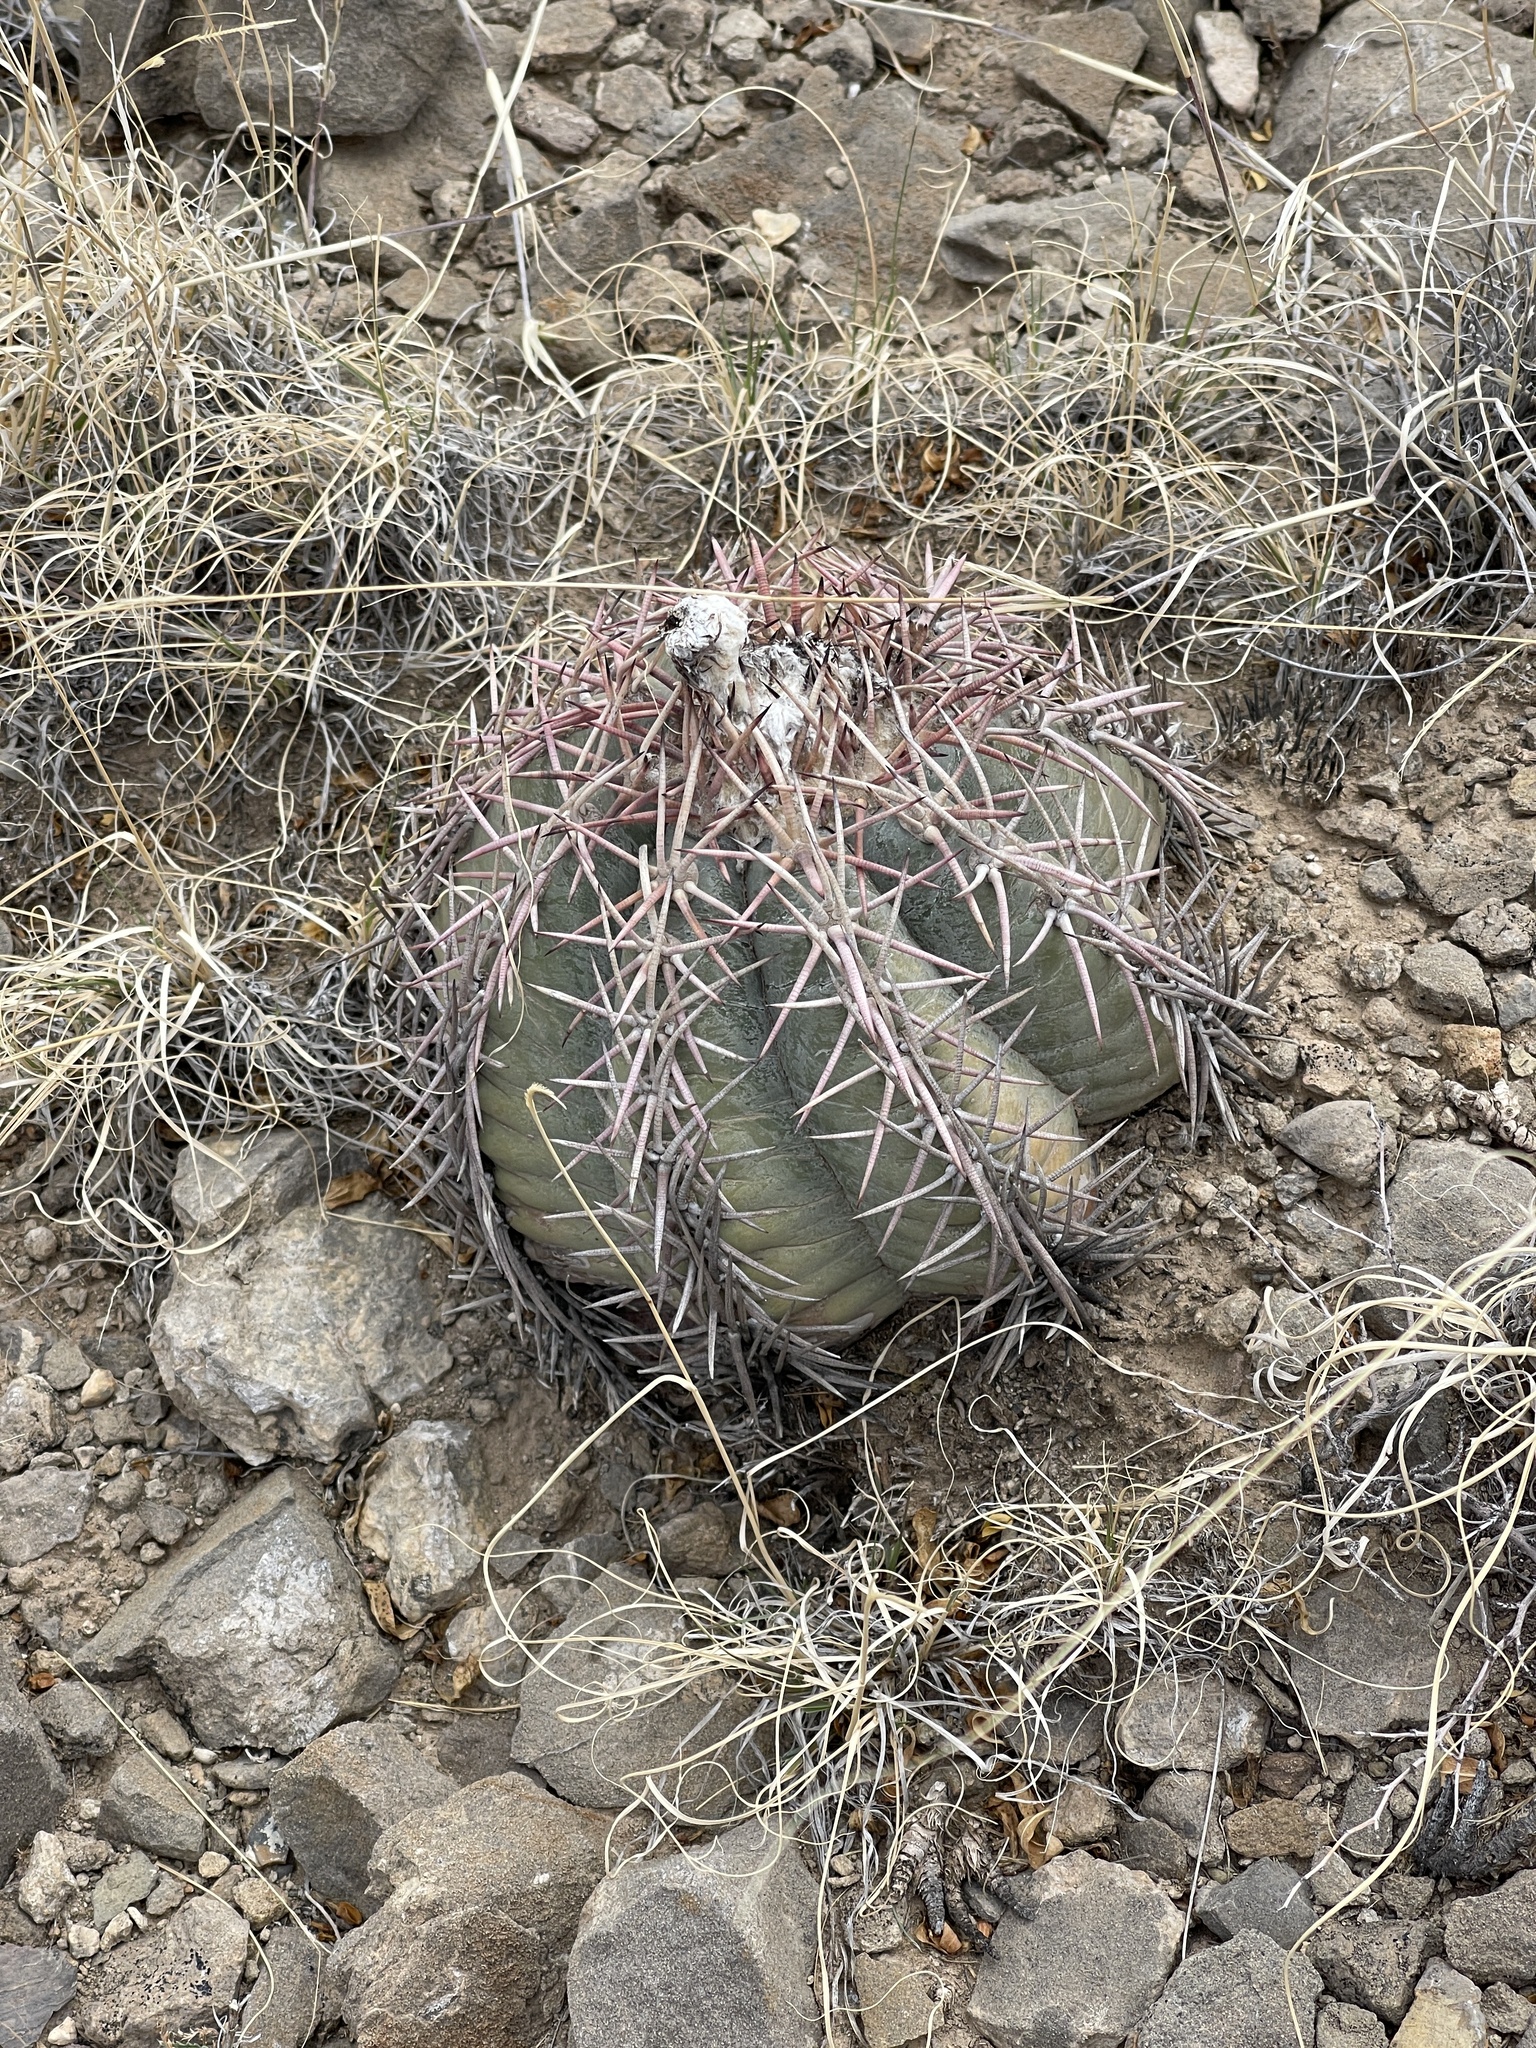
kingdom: Plantae
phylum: Tracheophyta
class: Magnoliopsida
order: Caryophyllales
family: Cactaceae
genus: Echinocactus
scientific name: Echinocactus horizonthalonius
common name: Devilshead
